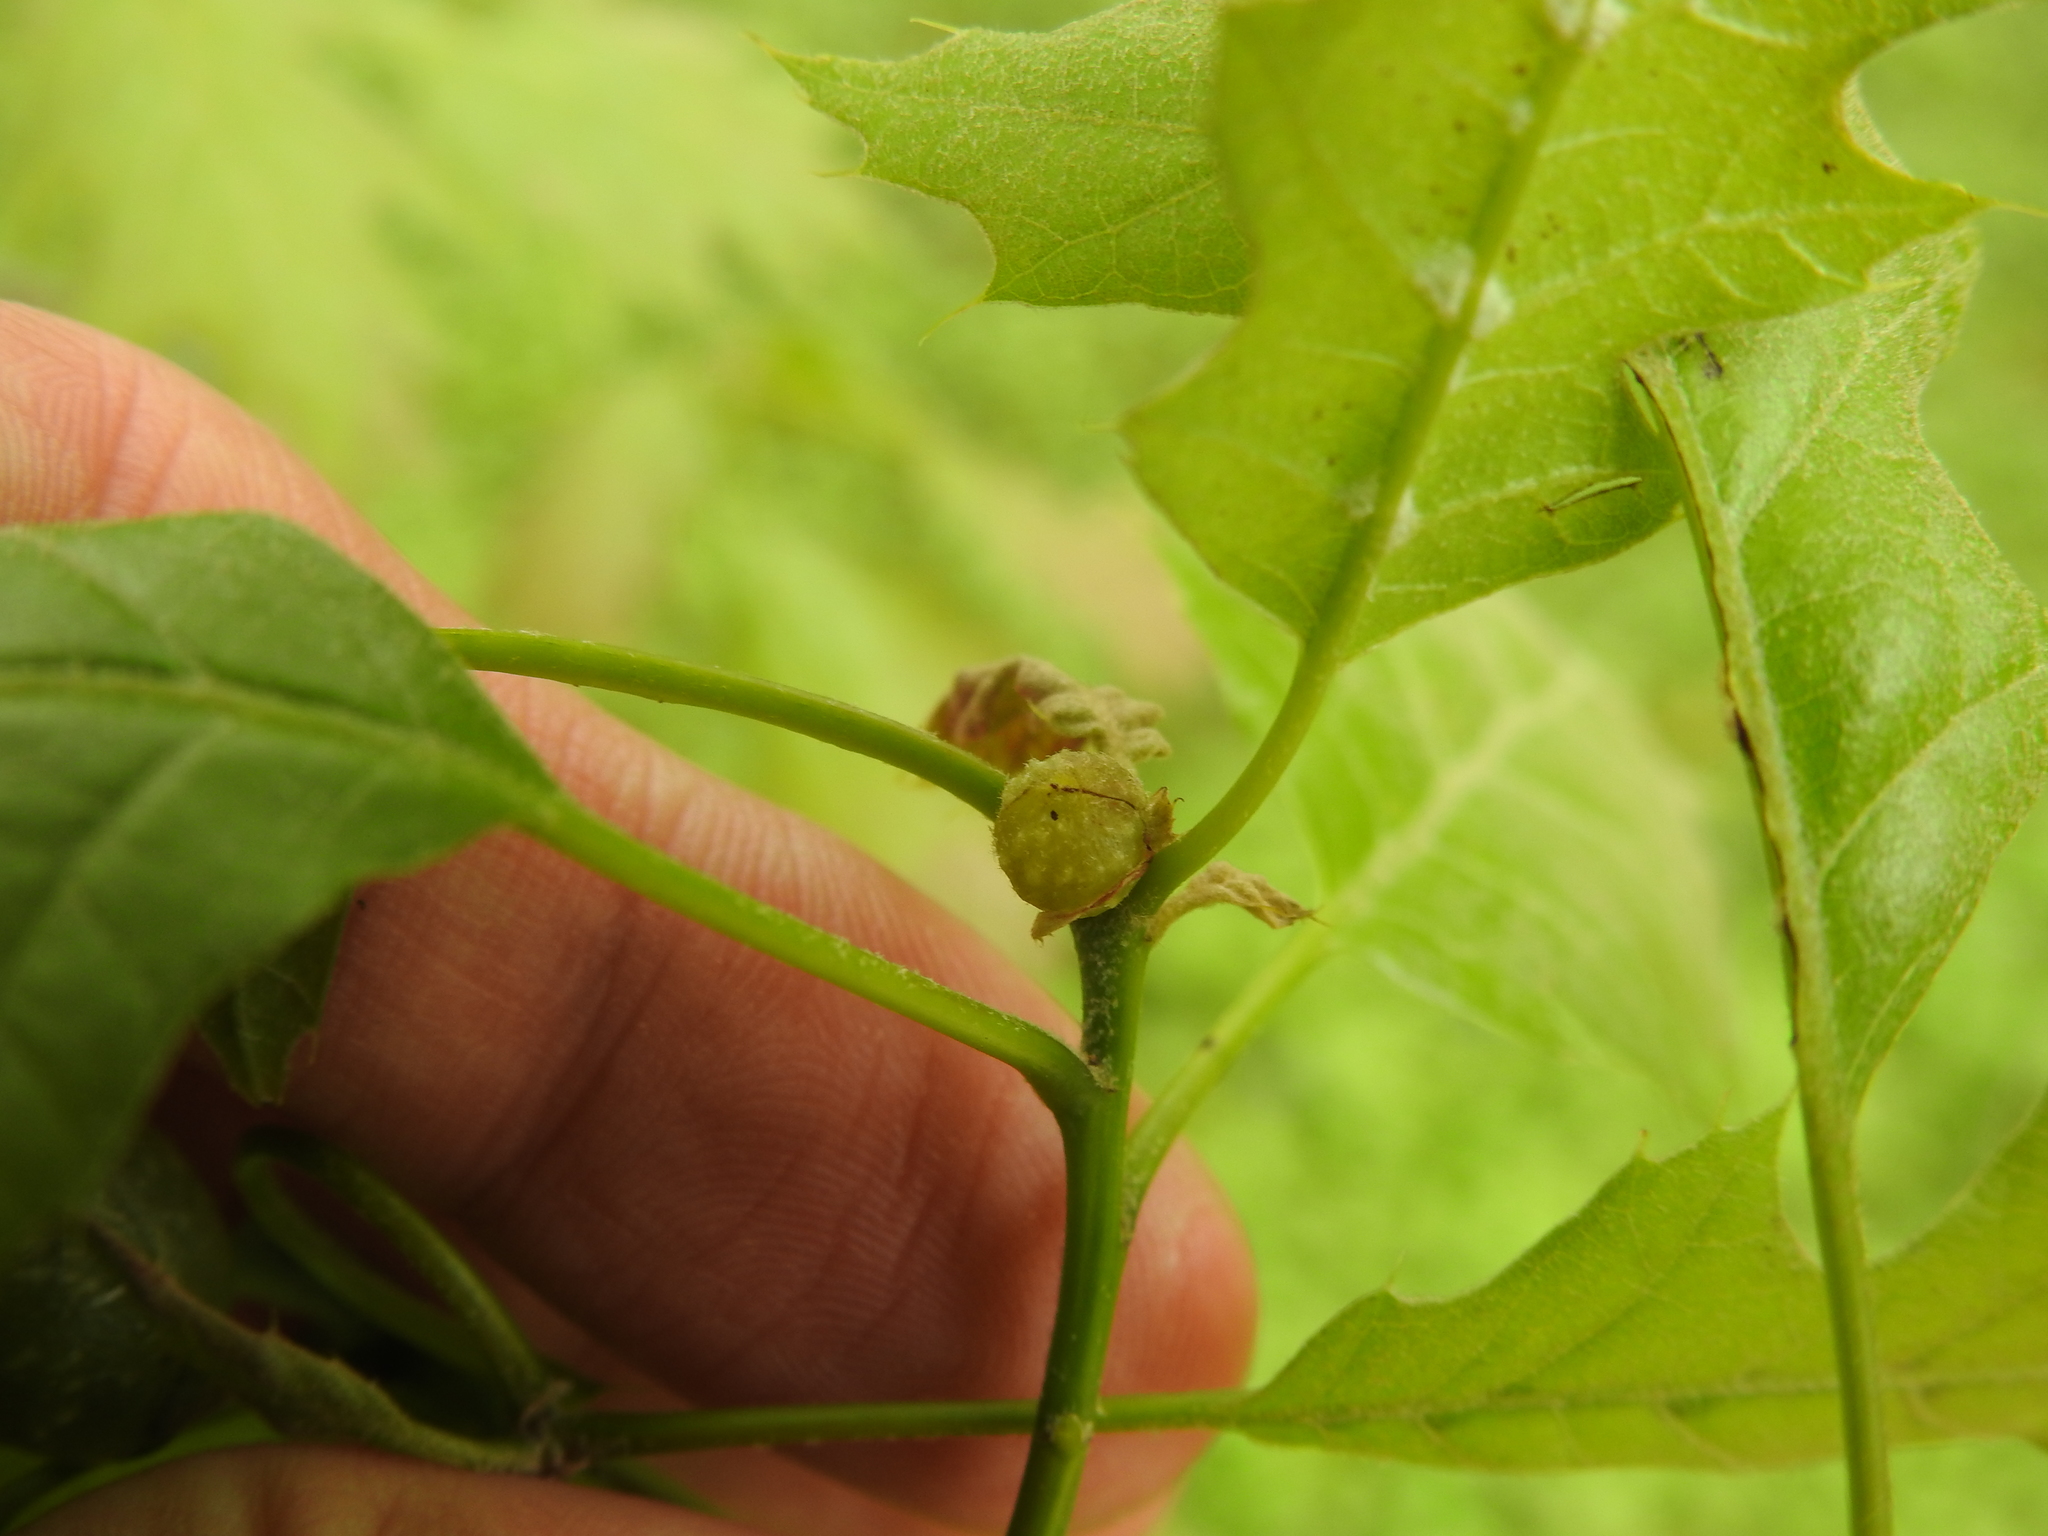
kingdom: Animalia
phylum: Arthropoda
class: Insecta
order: Hymenoptera
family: Cynipidae
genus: Dryocosmus
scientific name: Dryocosmus quercuspalustris
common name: Succulent oak gall wasp
